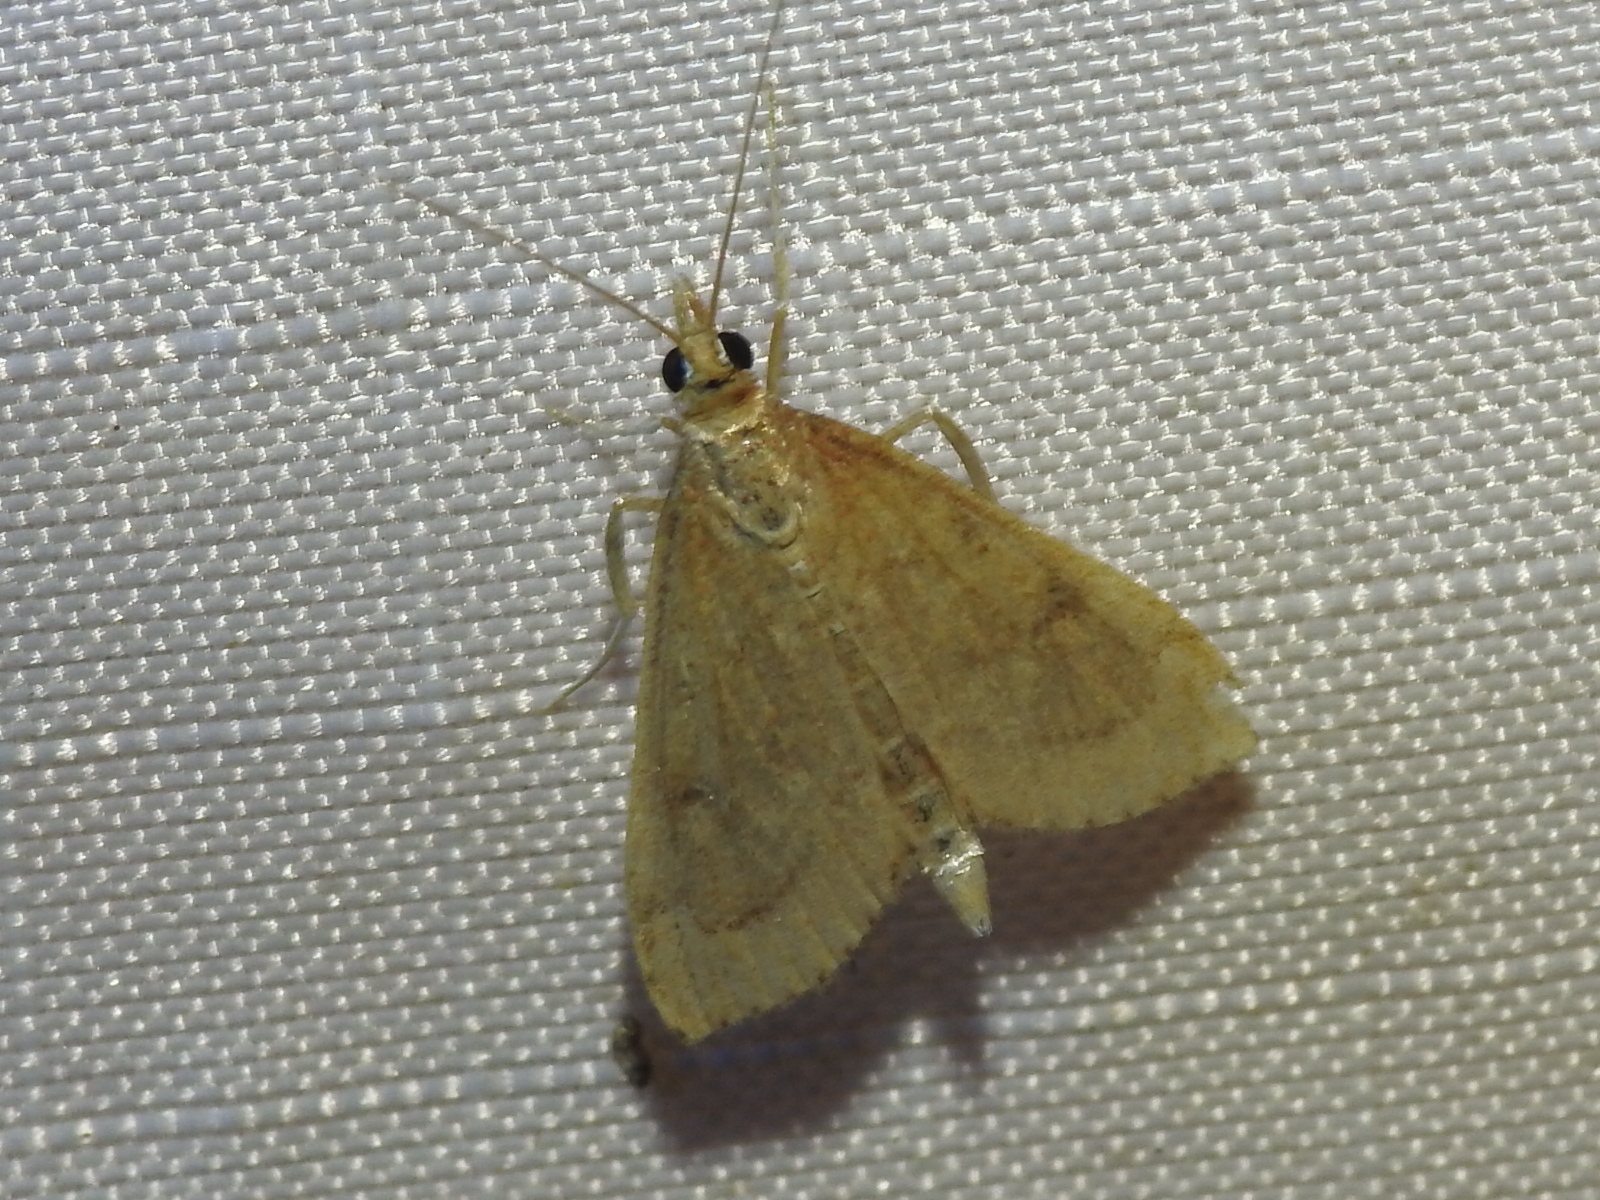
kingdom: Animalia
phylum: Arthropoda
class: Insecta
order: Lepidoptera
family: Crambidae
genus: Udea
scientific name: Udea rubigalis
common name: Celery leaftier moth
